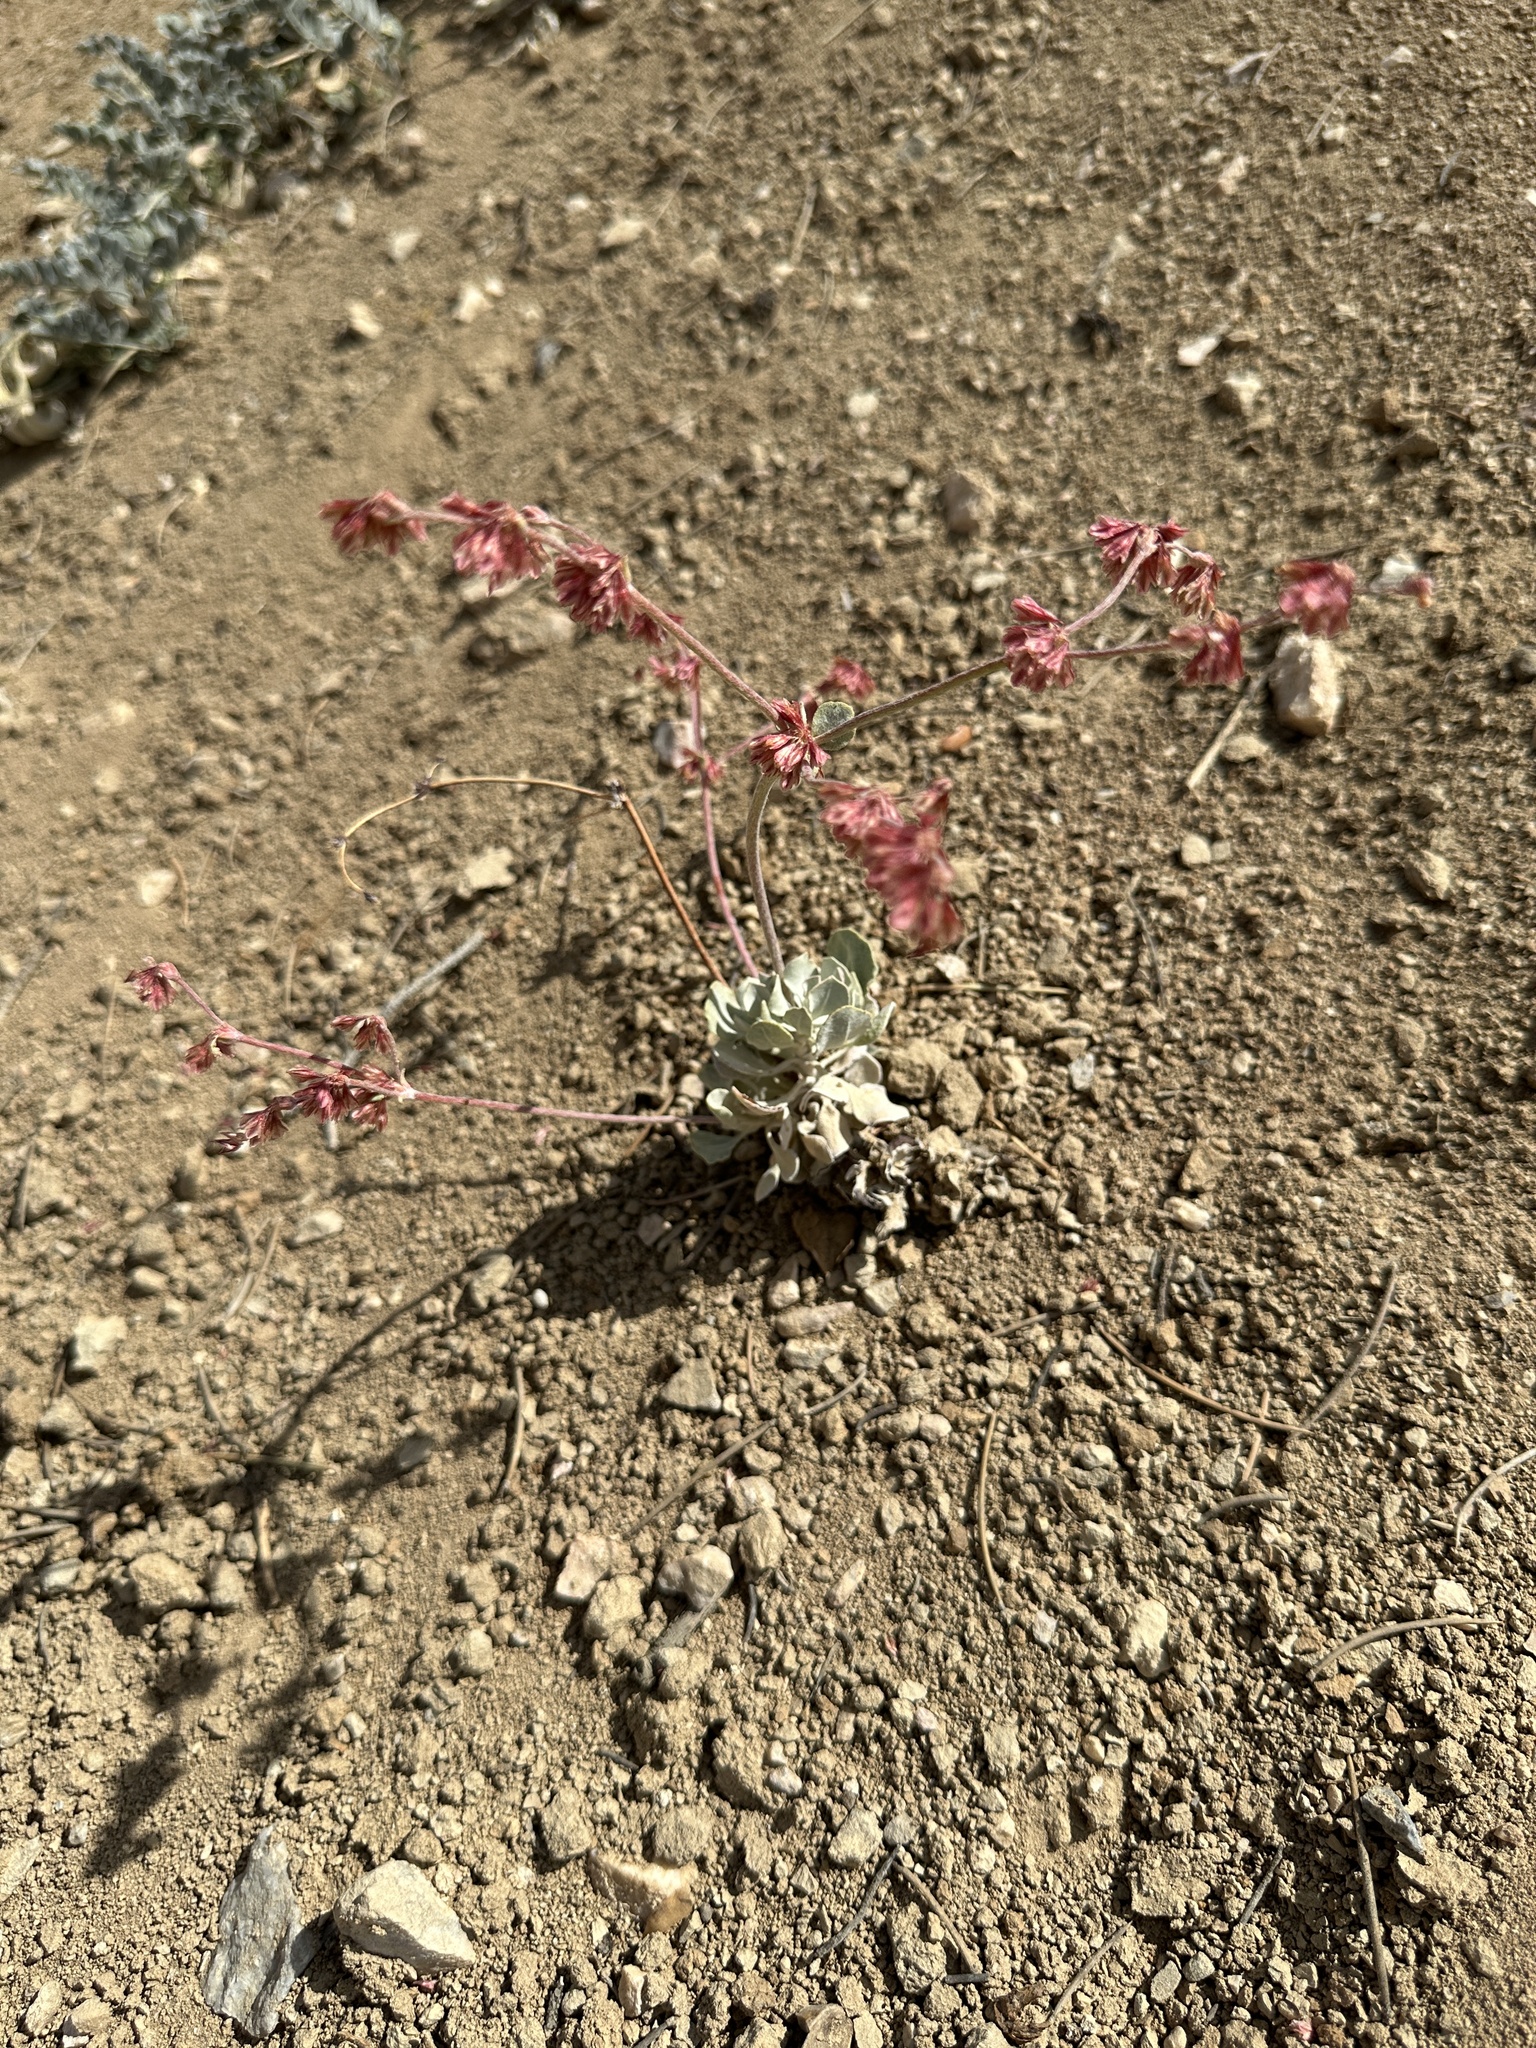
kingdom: Plantae
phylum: Tracheophyta
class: Magnoliopsida
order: Caryophyllales
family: Polygonaceae
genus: Eriogonum
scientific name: Eriogonum saxatile
